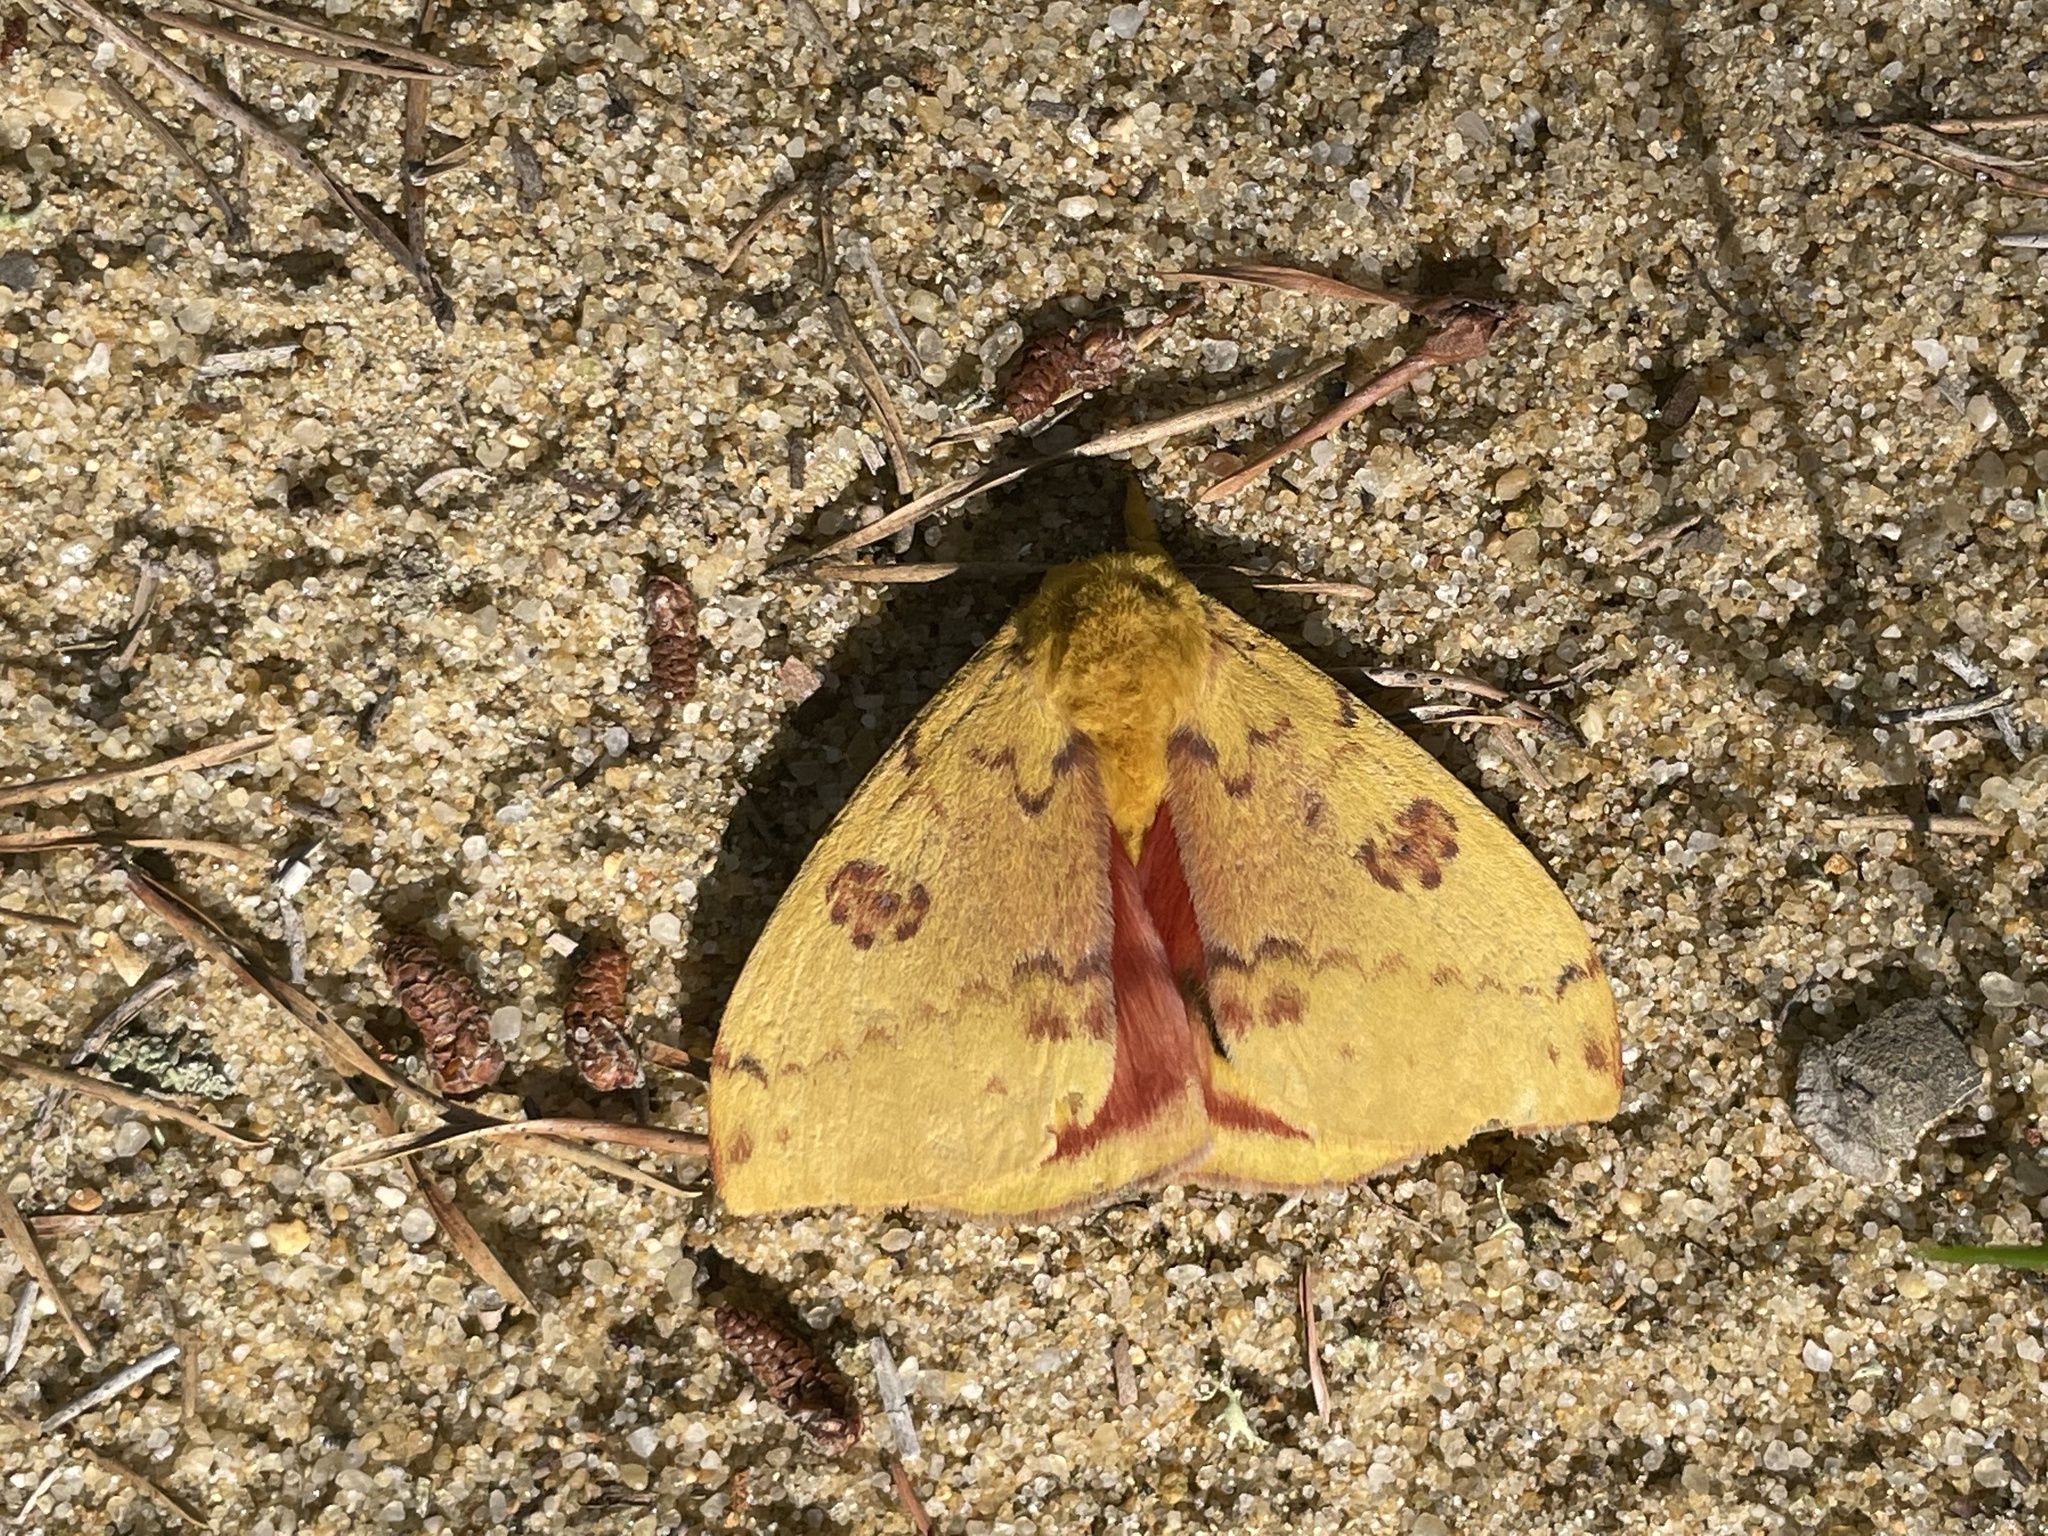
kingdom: Animalia
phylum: Arthropoda
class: Insecta
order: Lepidoptera
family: Saturniidae
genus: Automeris
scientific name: Automeris io
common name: Io moth
